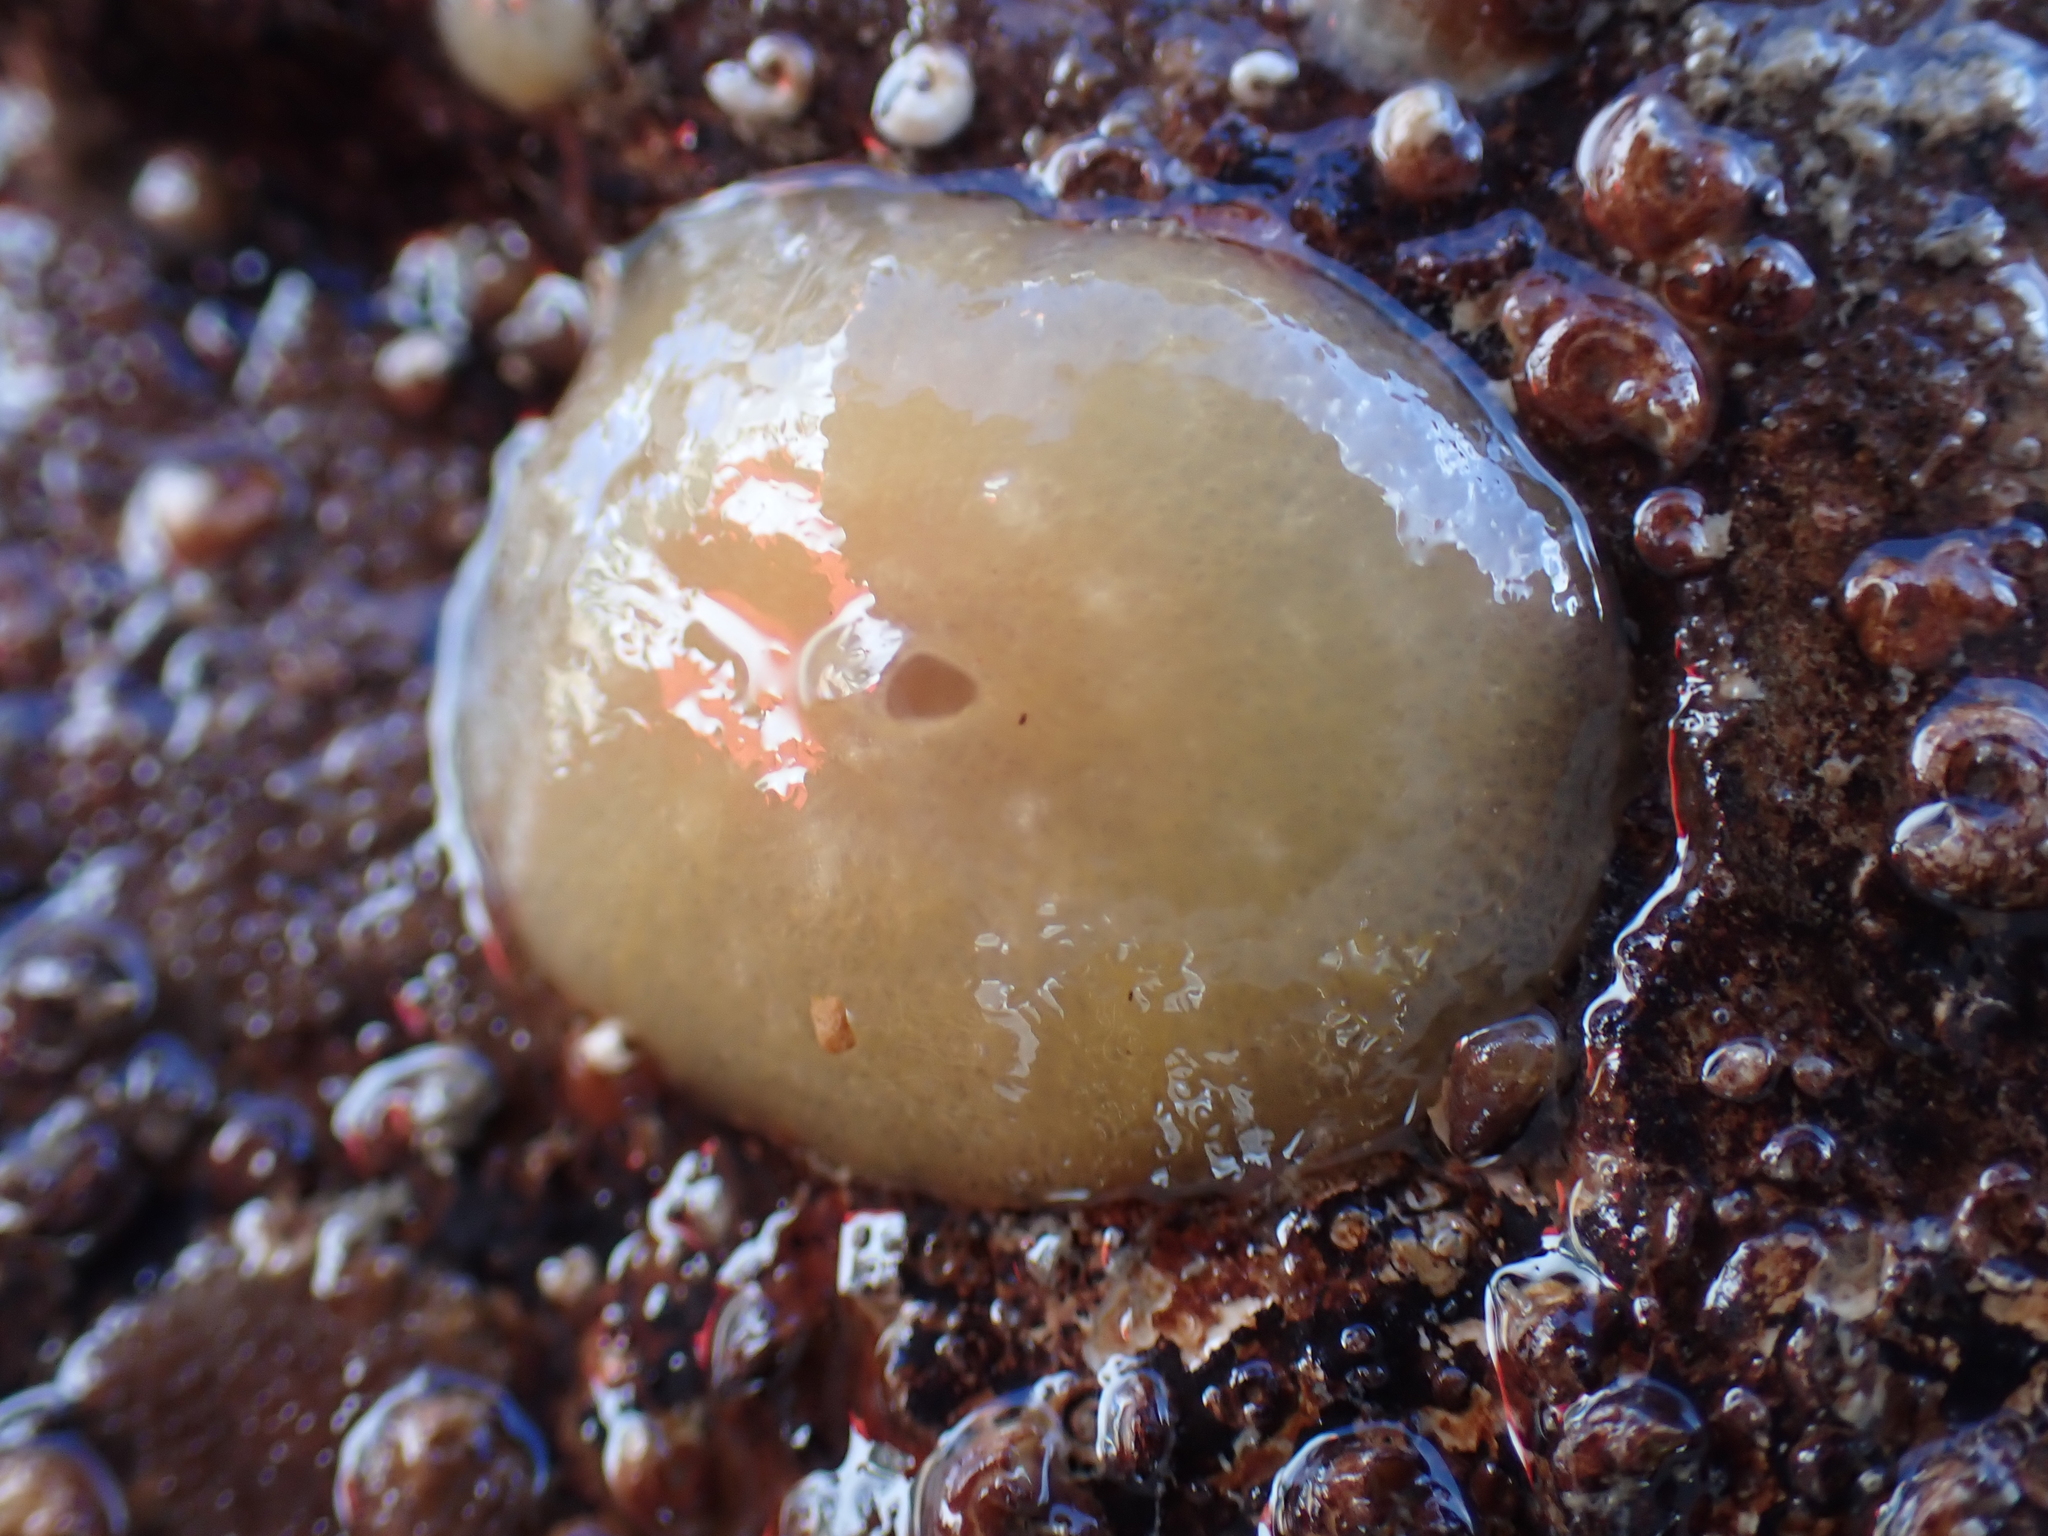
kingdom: Animalia
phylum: Mollusca
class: Gastropoda
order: Pleurobranchida
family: Pleurobranchidae
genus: Berthella
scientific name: Berthella plumula
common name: Yellow-plumed sea slug
